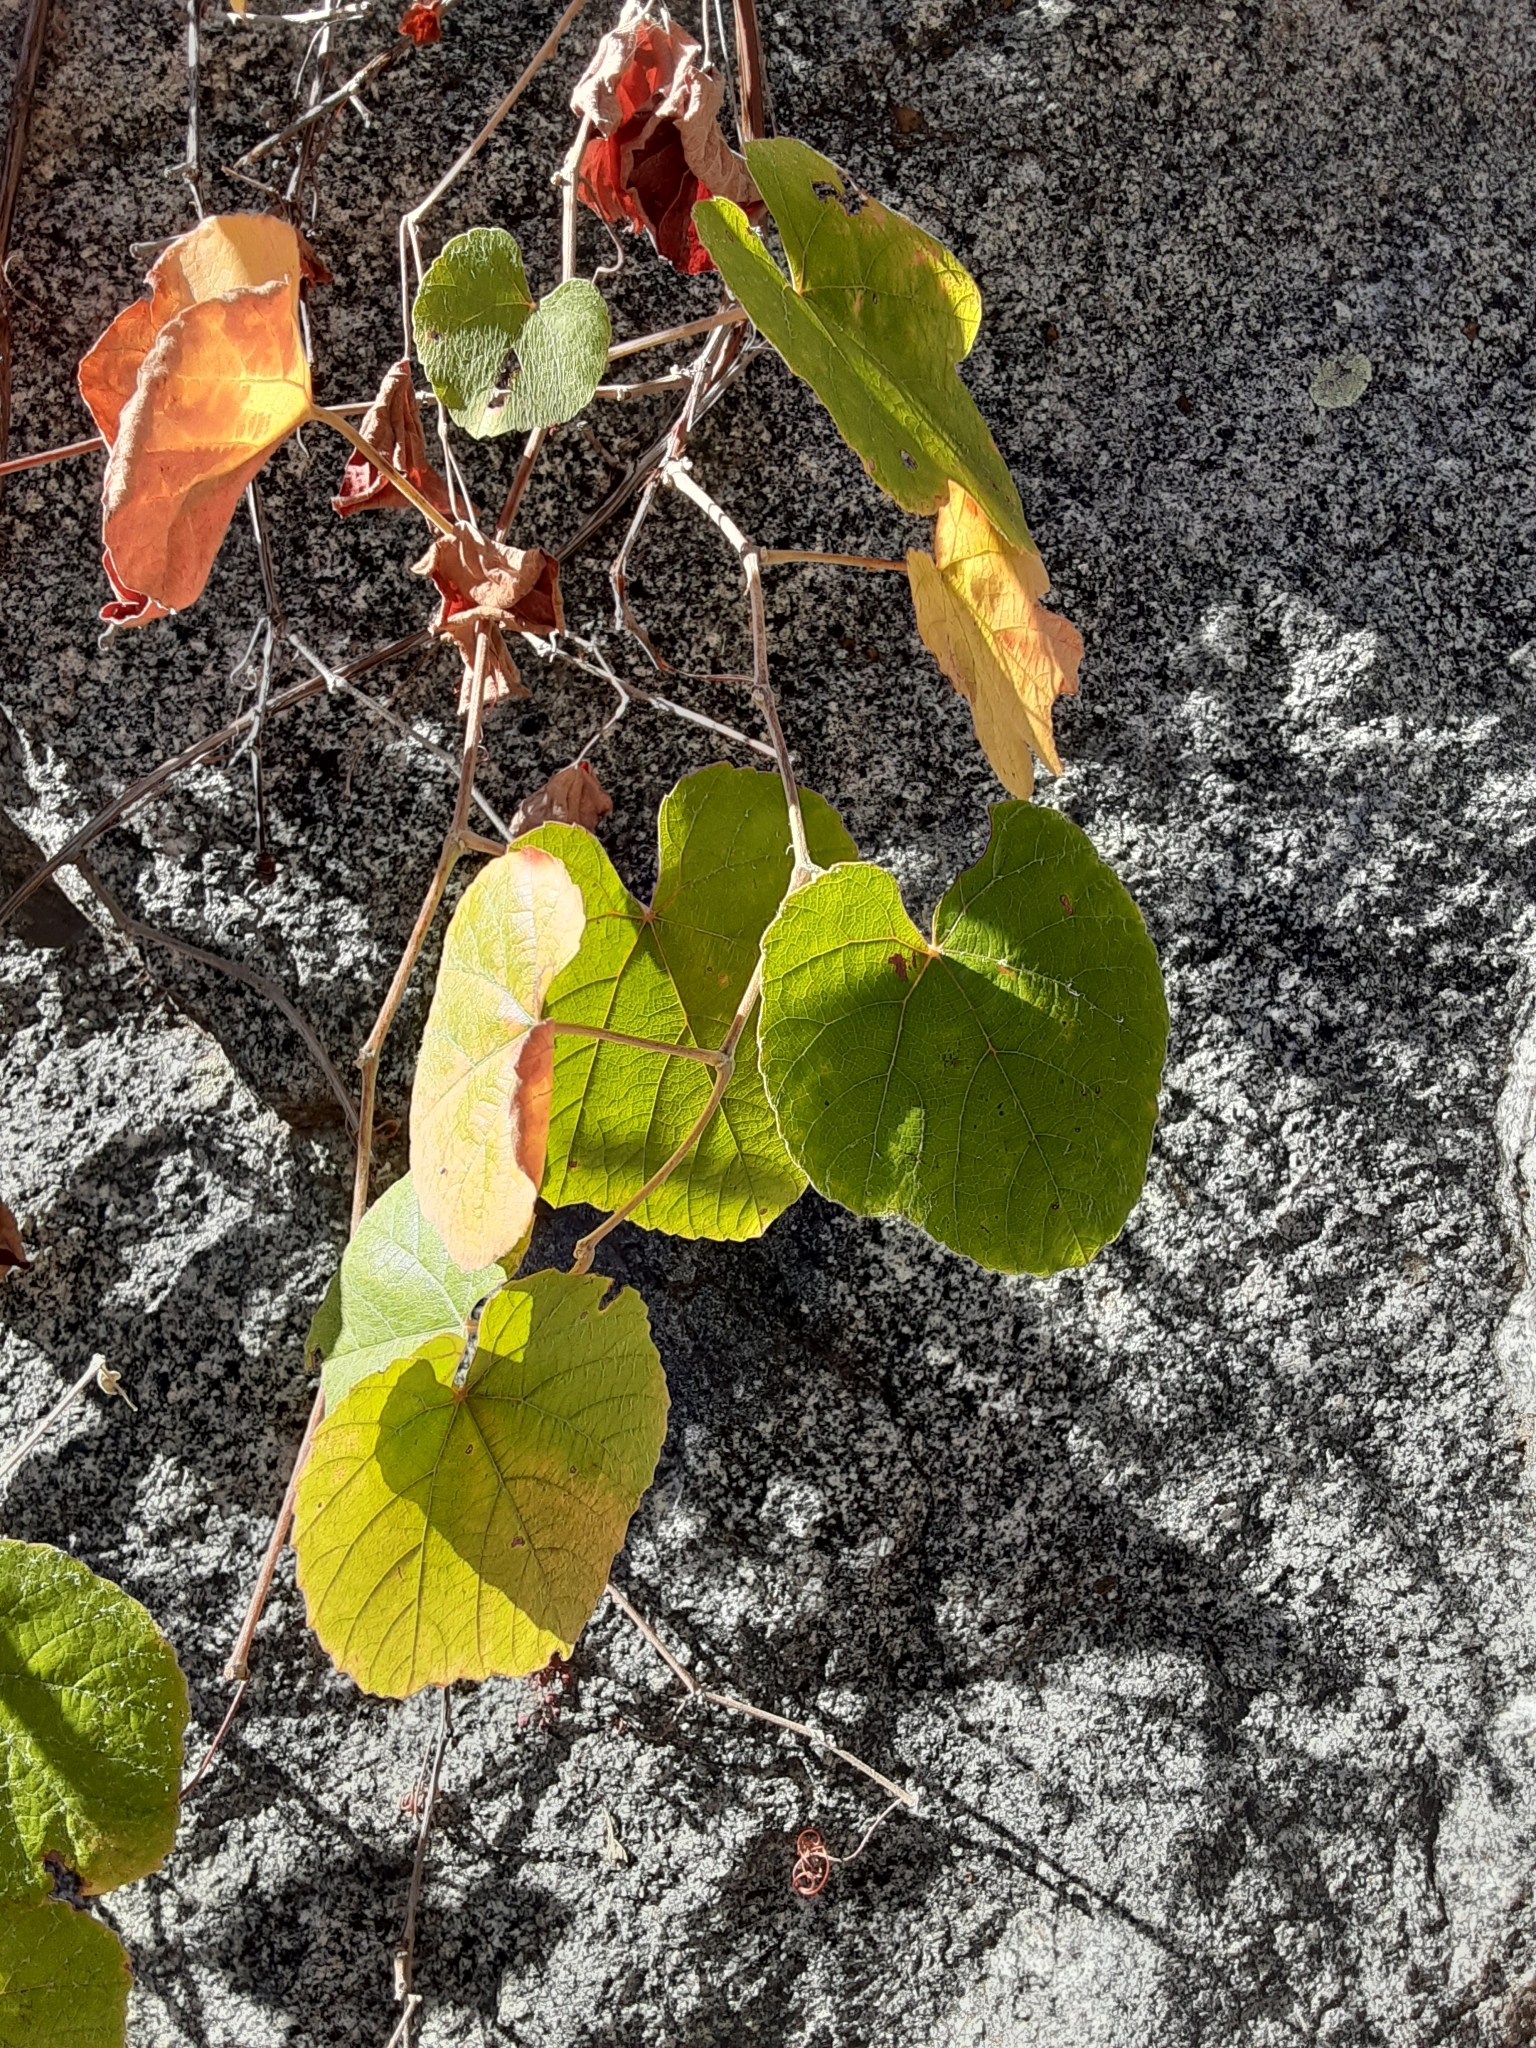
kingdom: Plantae
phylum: Tracheophyta
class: Magnoliopsida
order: Vitales
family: Vitaceae
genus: Vitis
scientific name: Vitis californica
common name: California wild grape
